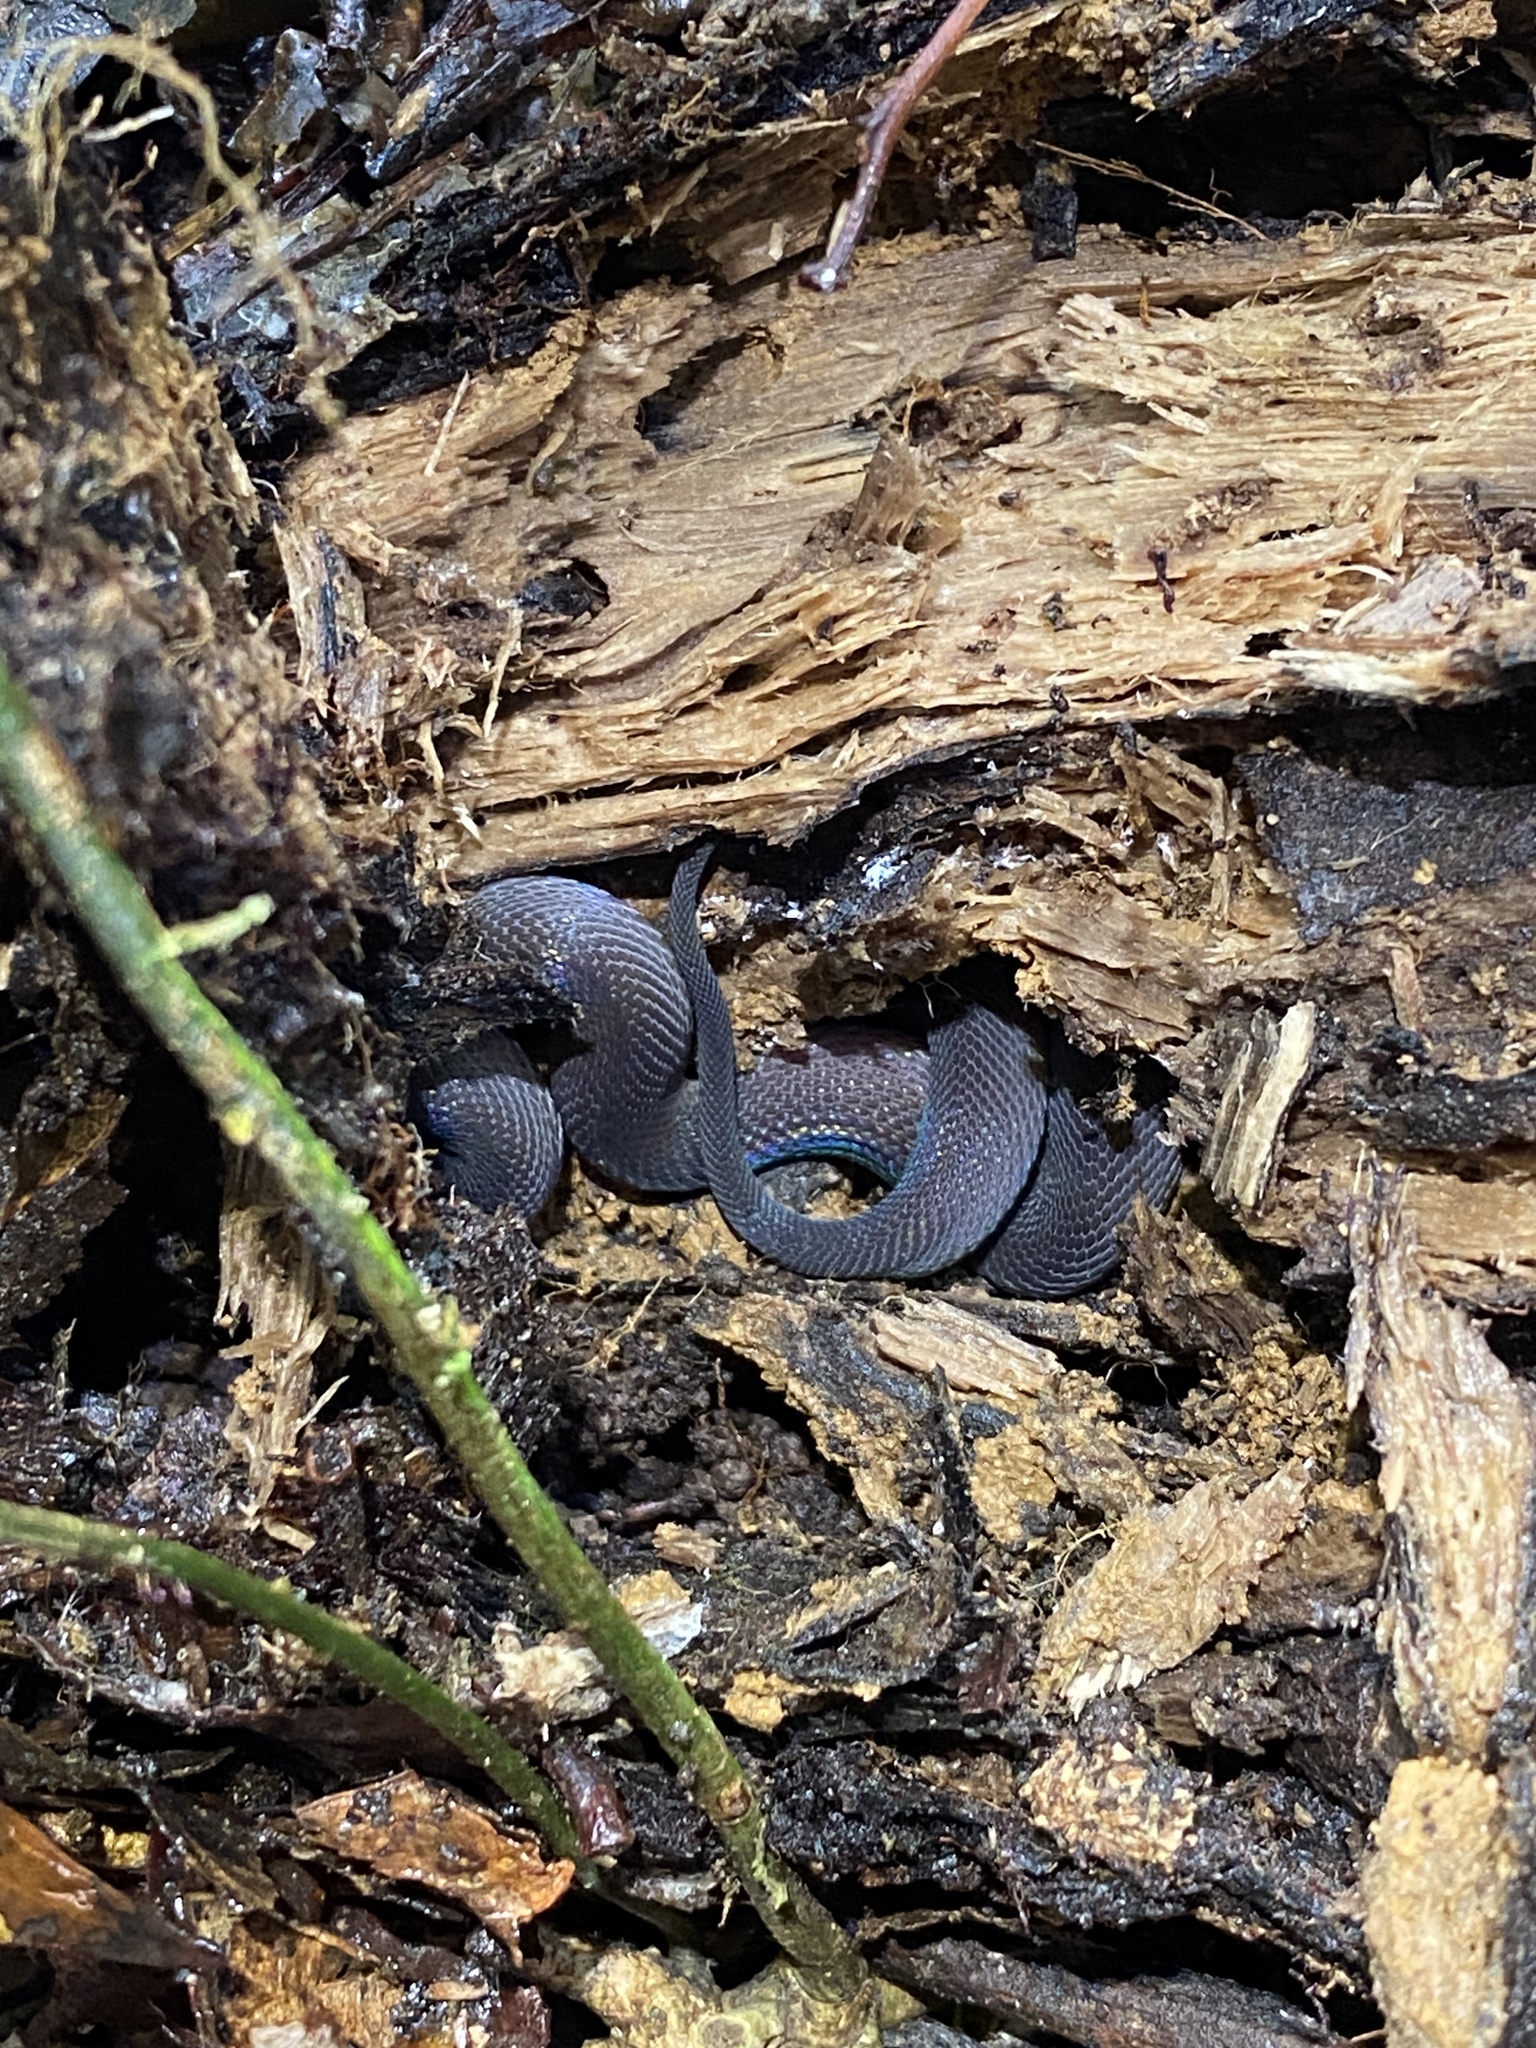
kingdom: Animalia
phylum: Chordata
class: Squamata
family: Xenodermidae
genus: Fimbrios
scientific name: Fimbrios klossi
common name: Bearded snake
